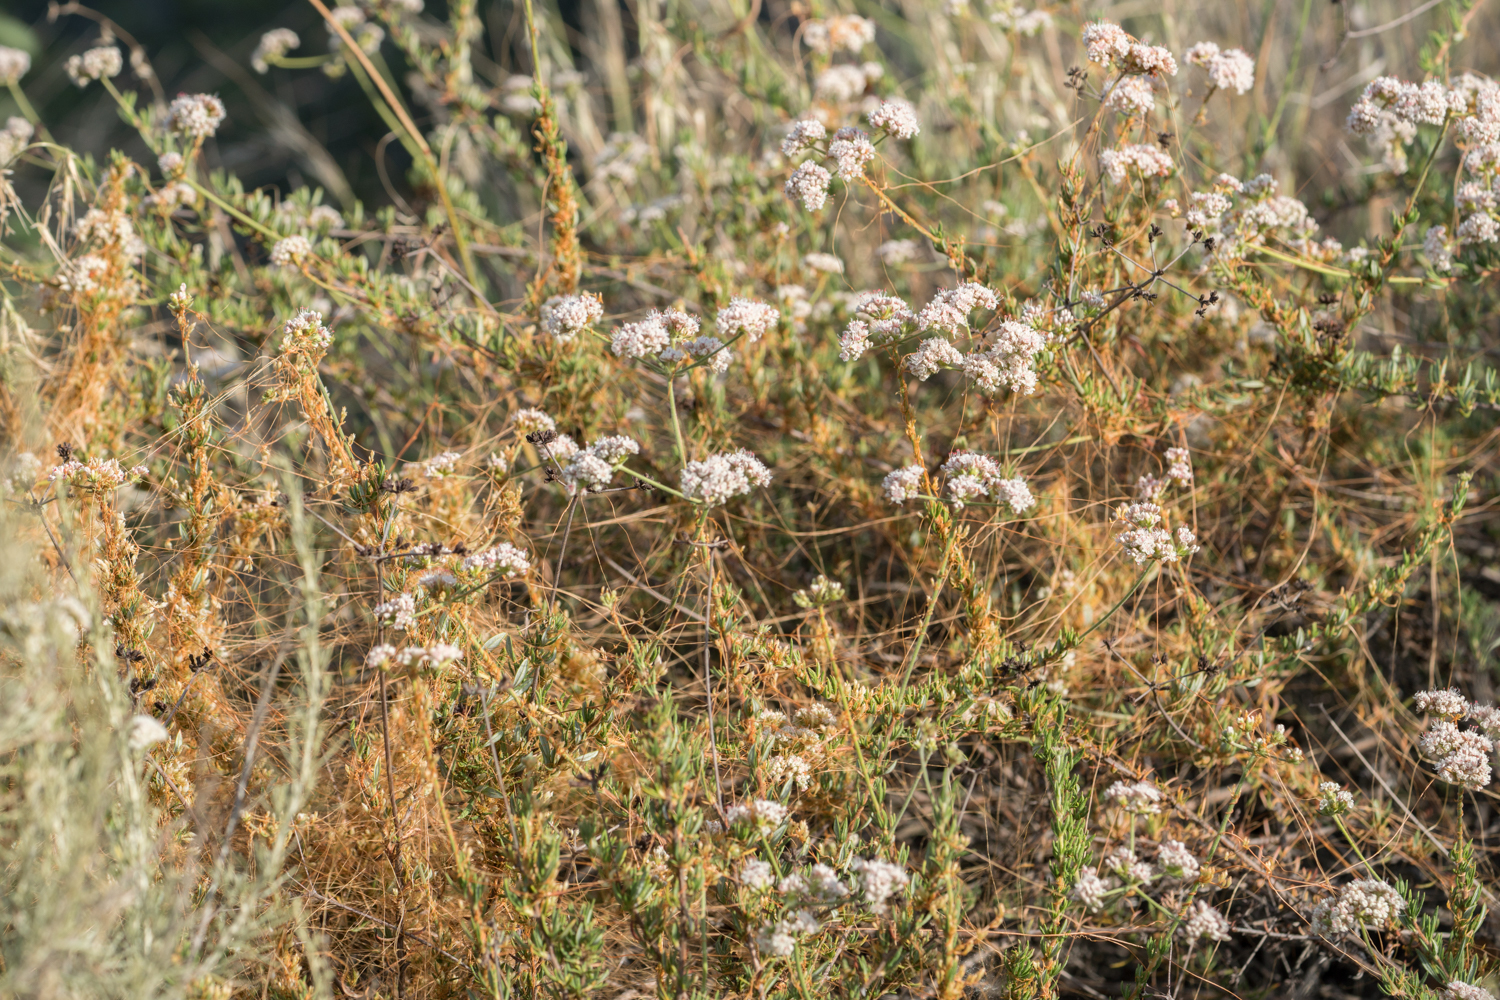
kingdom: Plantae
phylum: Tracheophyta
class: Magnoliopsida
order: Caryophyllales
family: Polygonaceae
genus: Eriogonum
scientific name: Eriogonum fasciculatum
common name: California wild buckwheat
